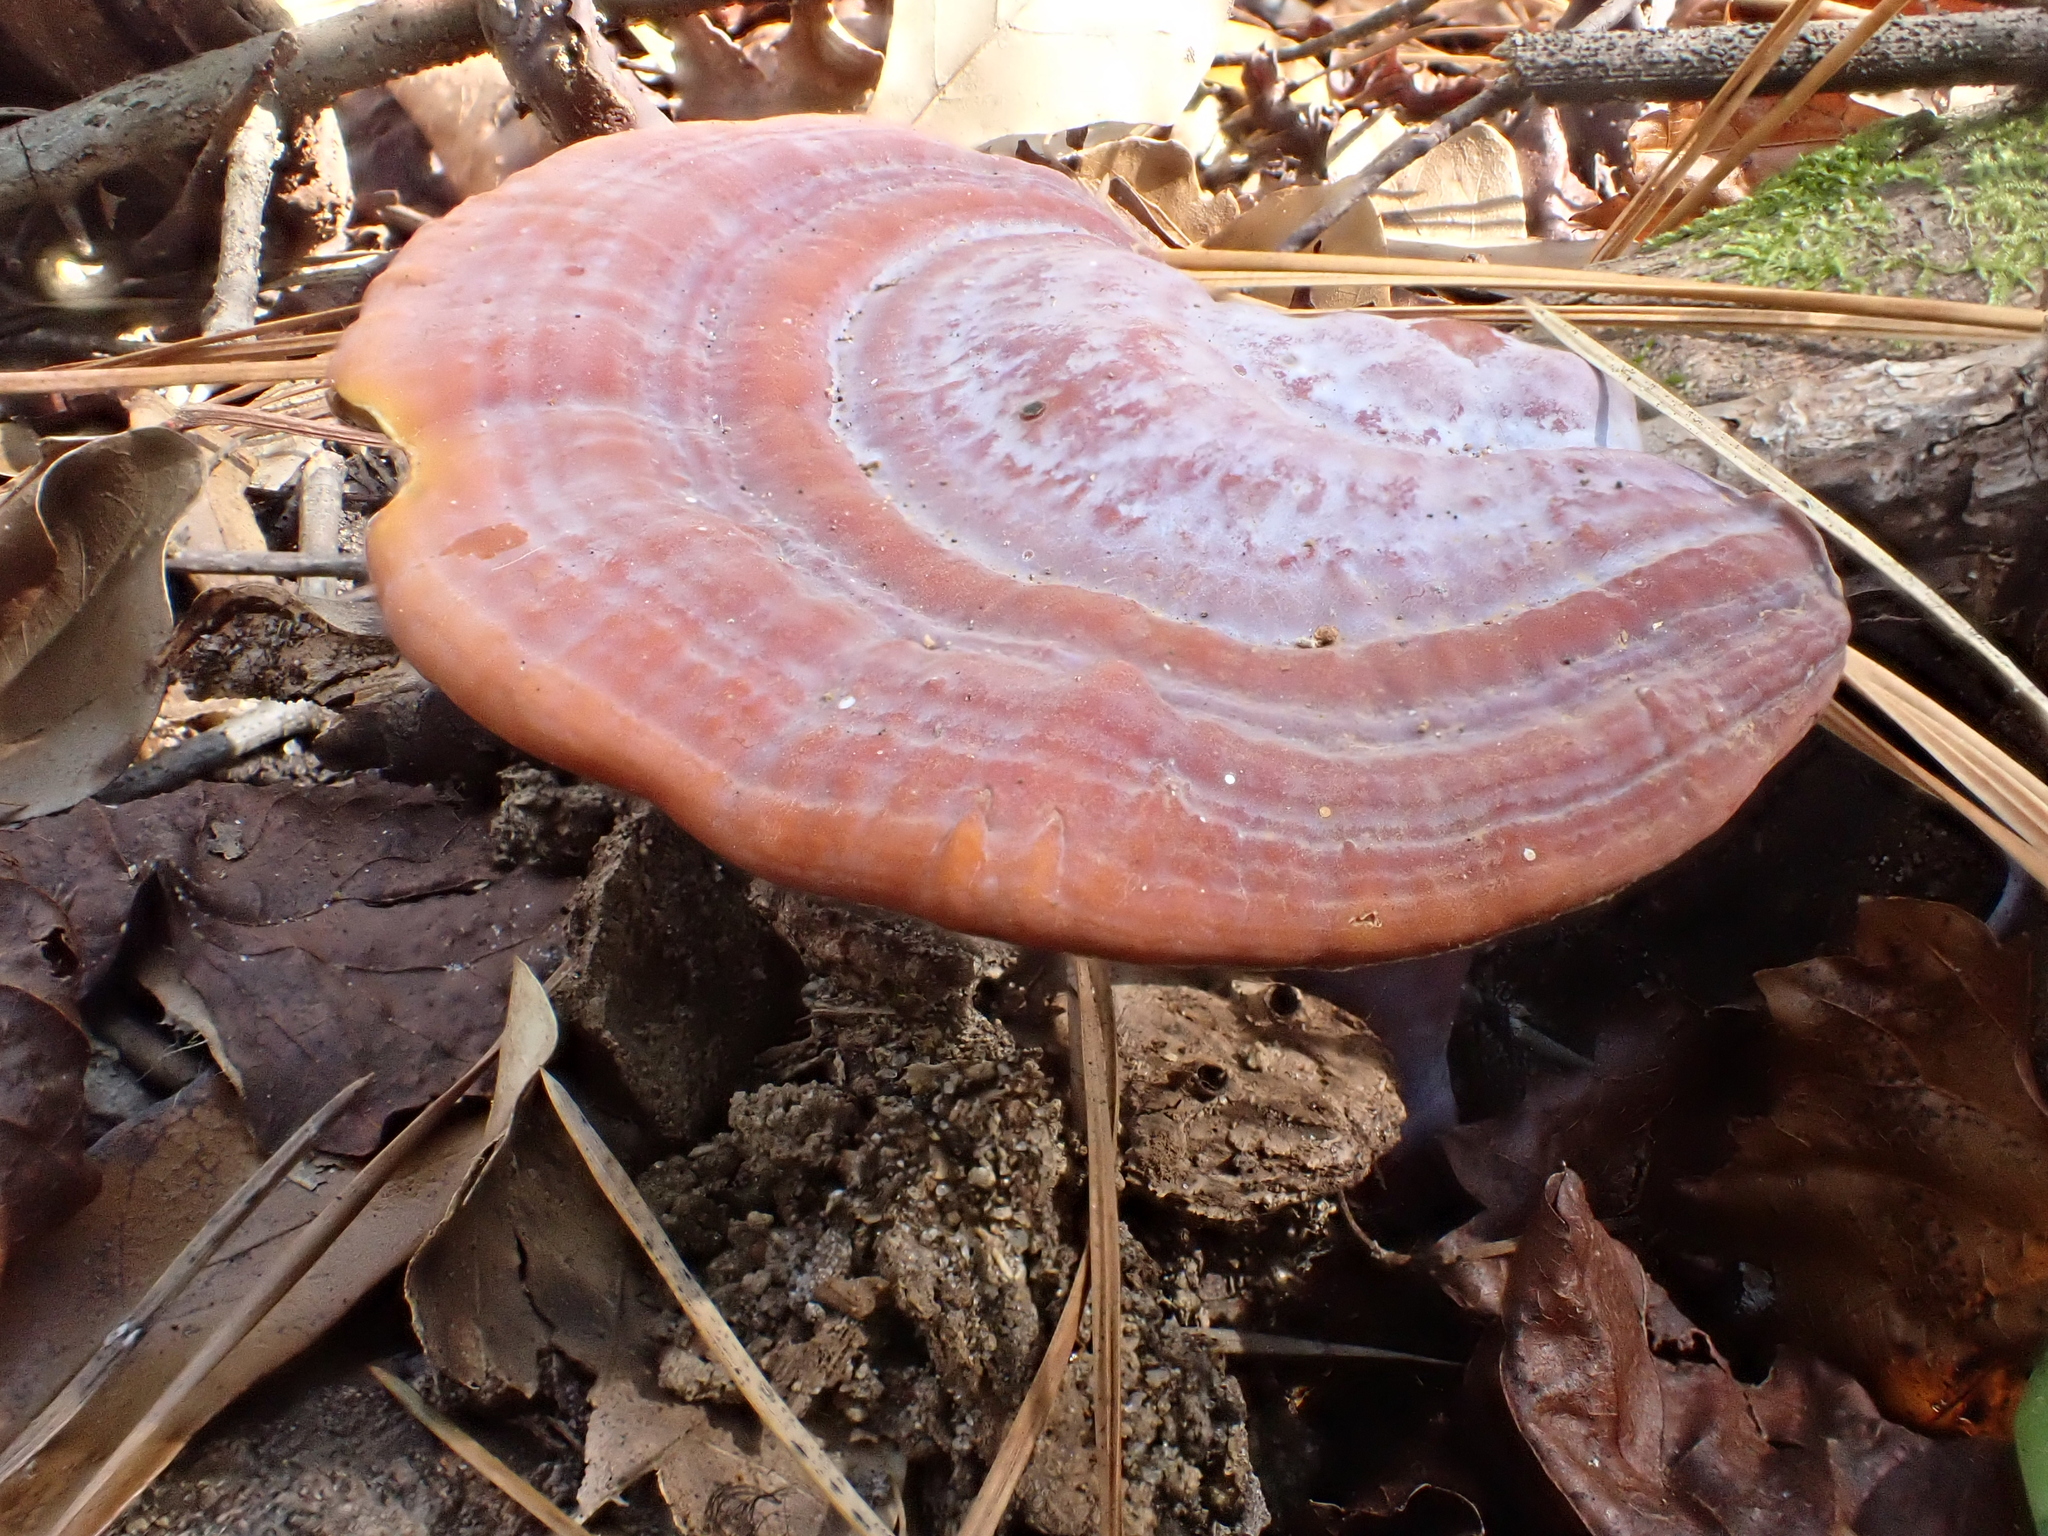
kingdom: Fungi
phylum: Basidiomycota
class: Agaricomycetes
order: Polyporales
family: Polyporaceae
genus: Ganoderma
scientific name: Ganoderma curtisii
